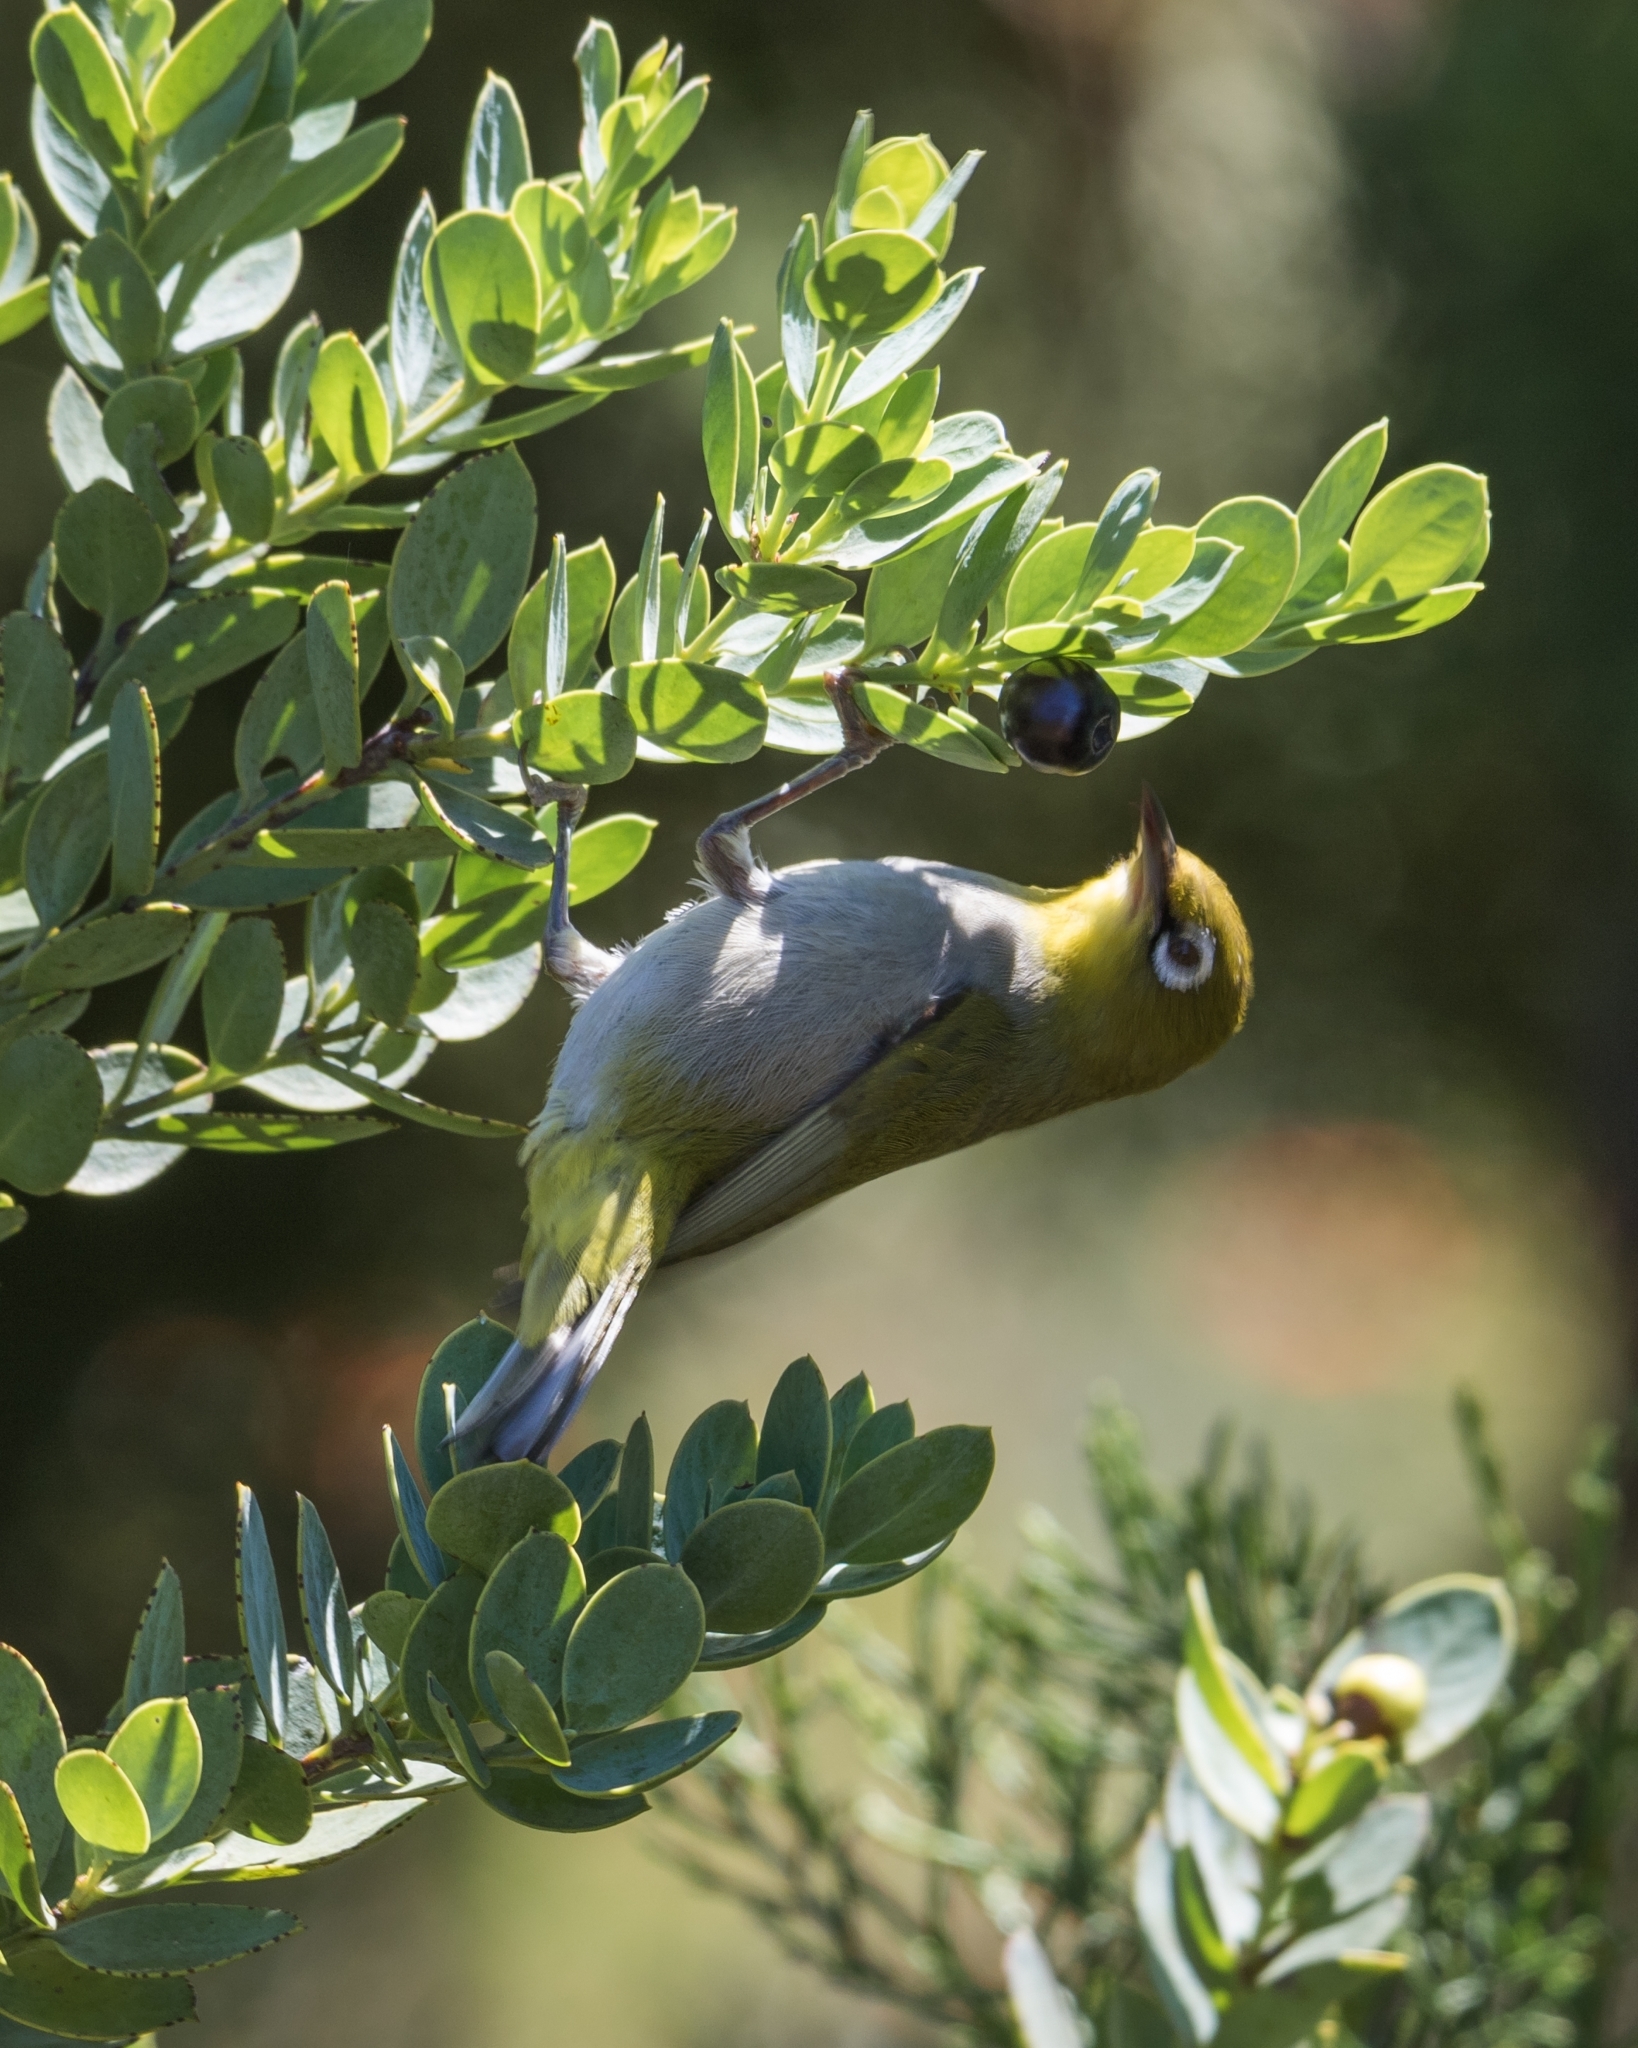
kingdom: Animalia
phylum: Chordata
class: Aves
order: Passeriformes
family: Zosteropidae
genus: Zosterops
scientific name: Zosterops virens
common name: Cape white-eye
